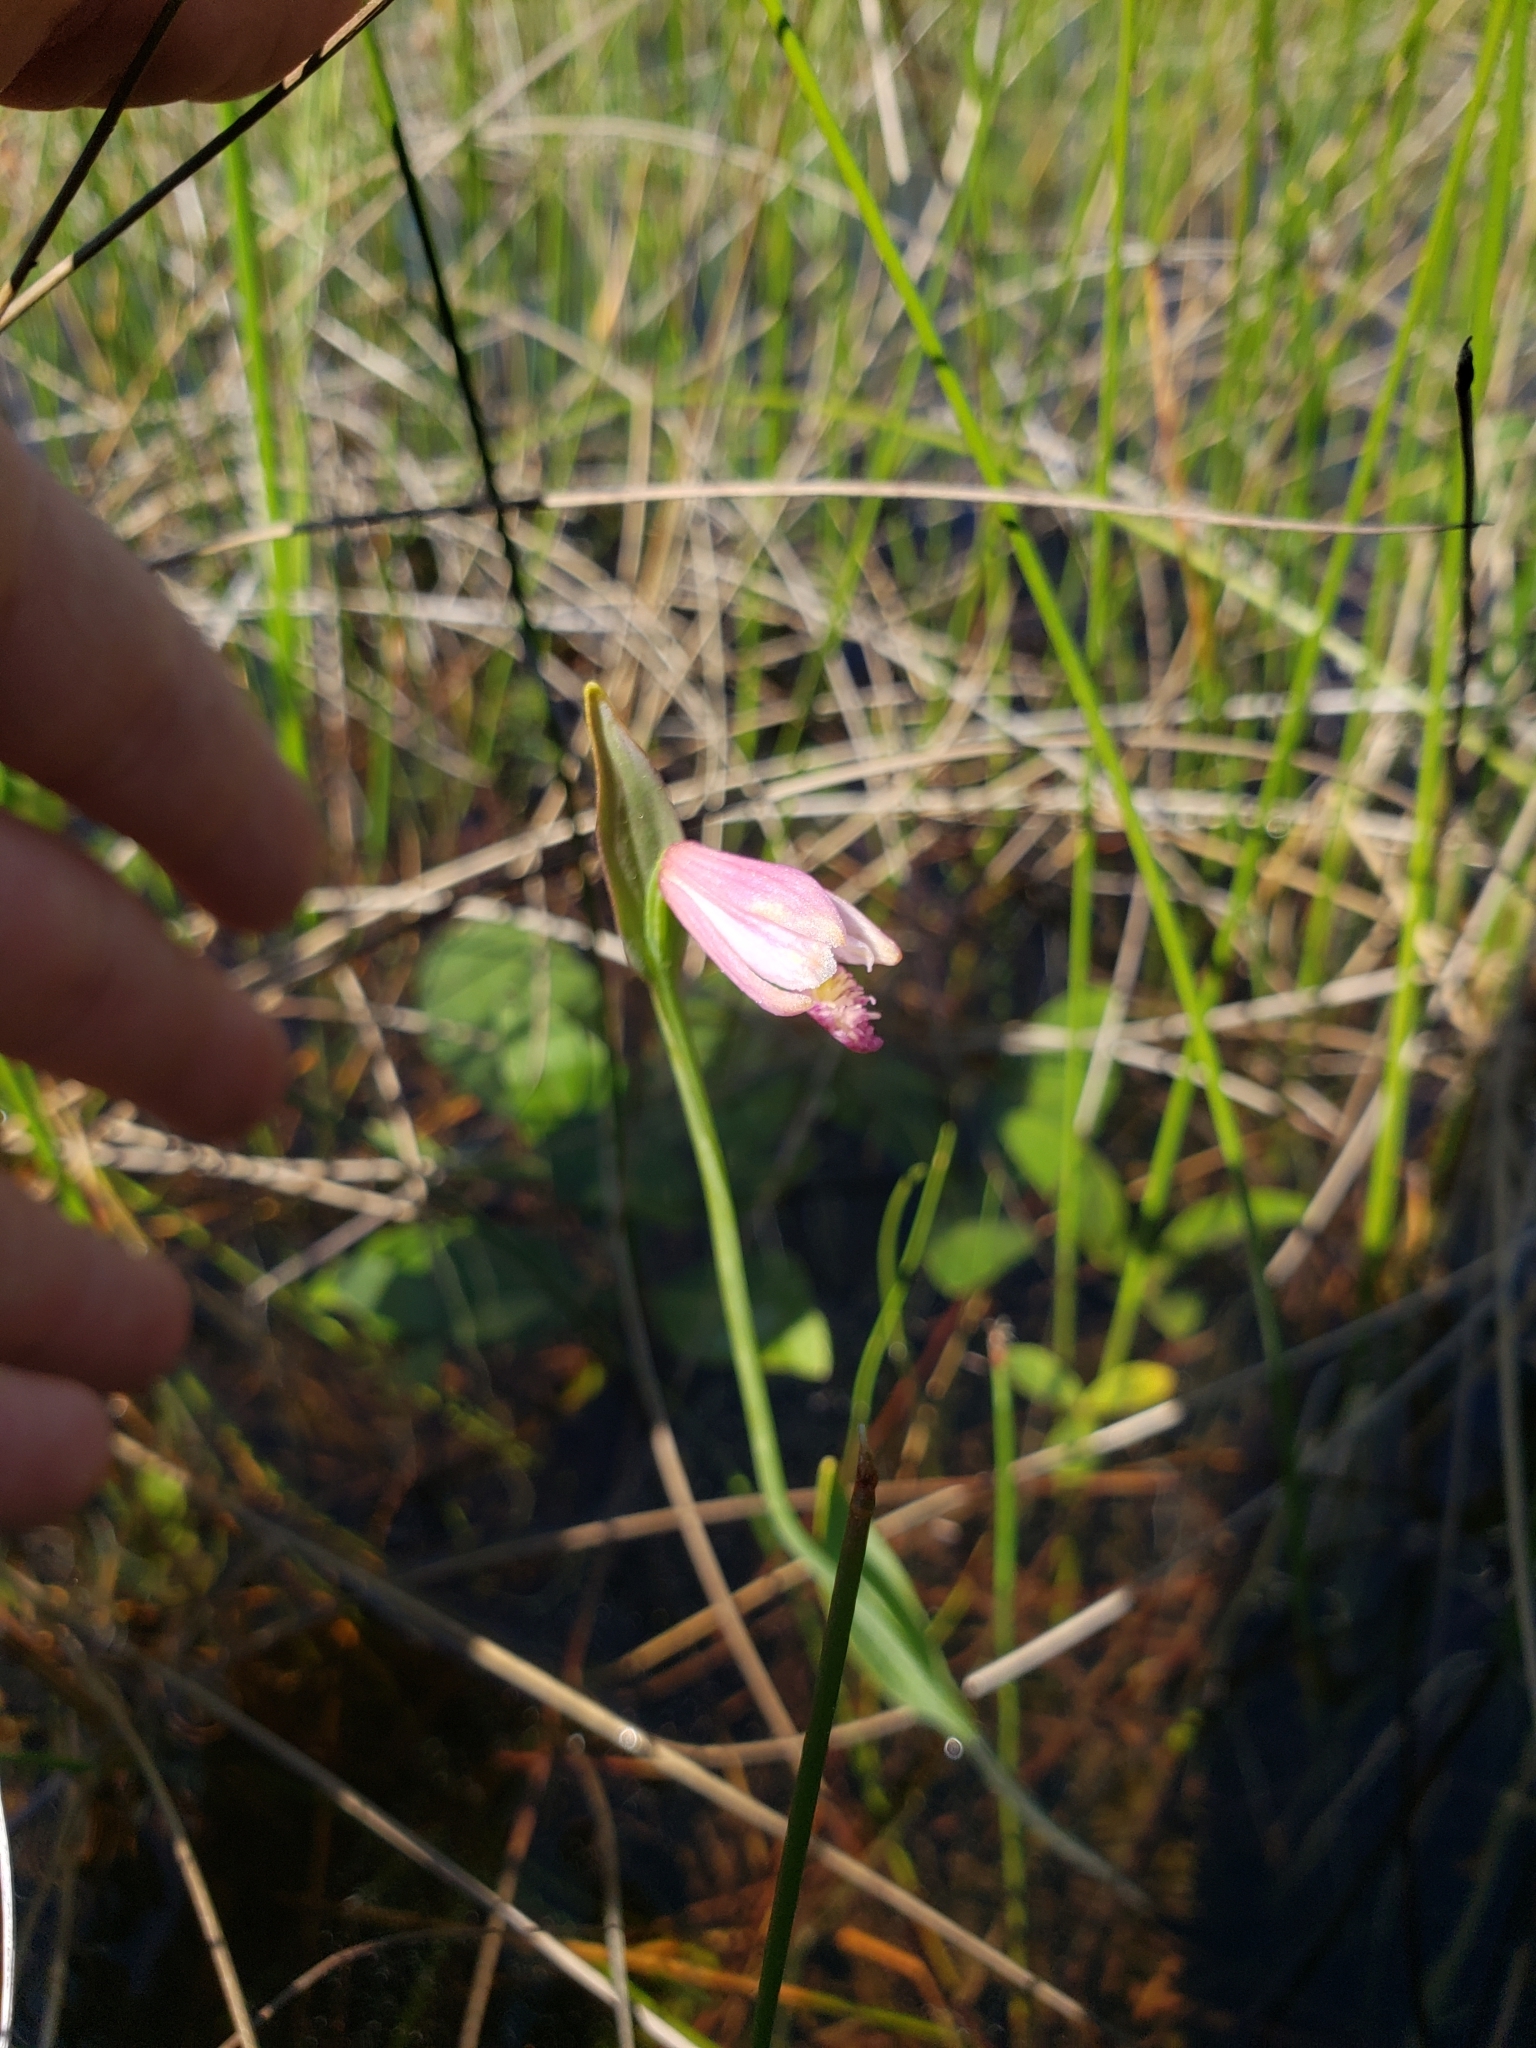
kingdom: Plantae
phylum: Tracheophyta
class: Liliopsida
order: Asparagales
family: Orchidaceae
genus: Pogonia
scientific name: Pogonia ophioglossoides
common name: Rose pogonia
